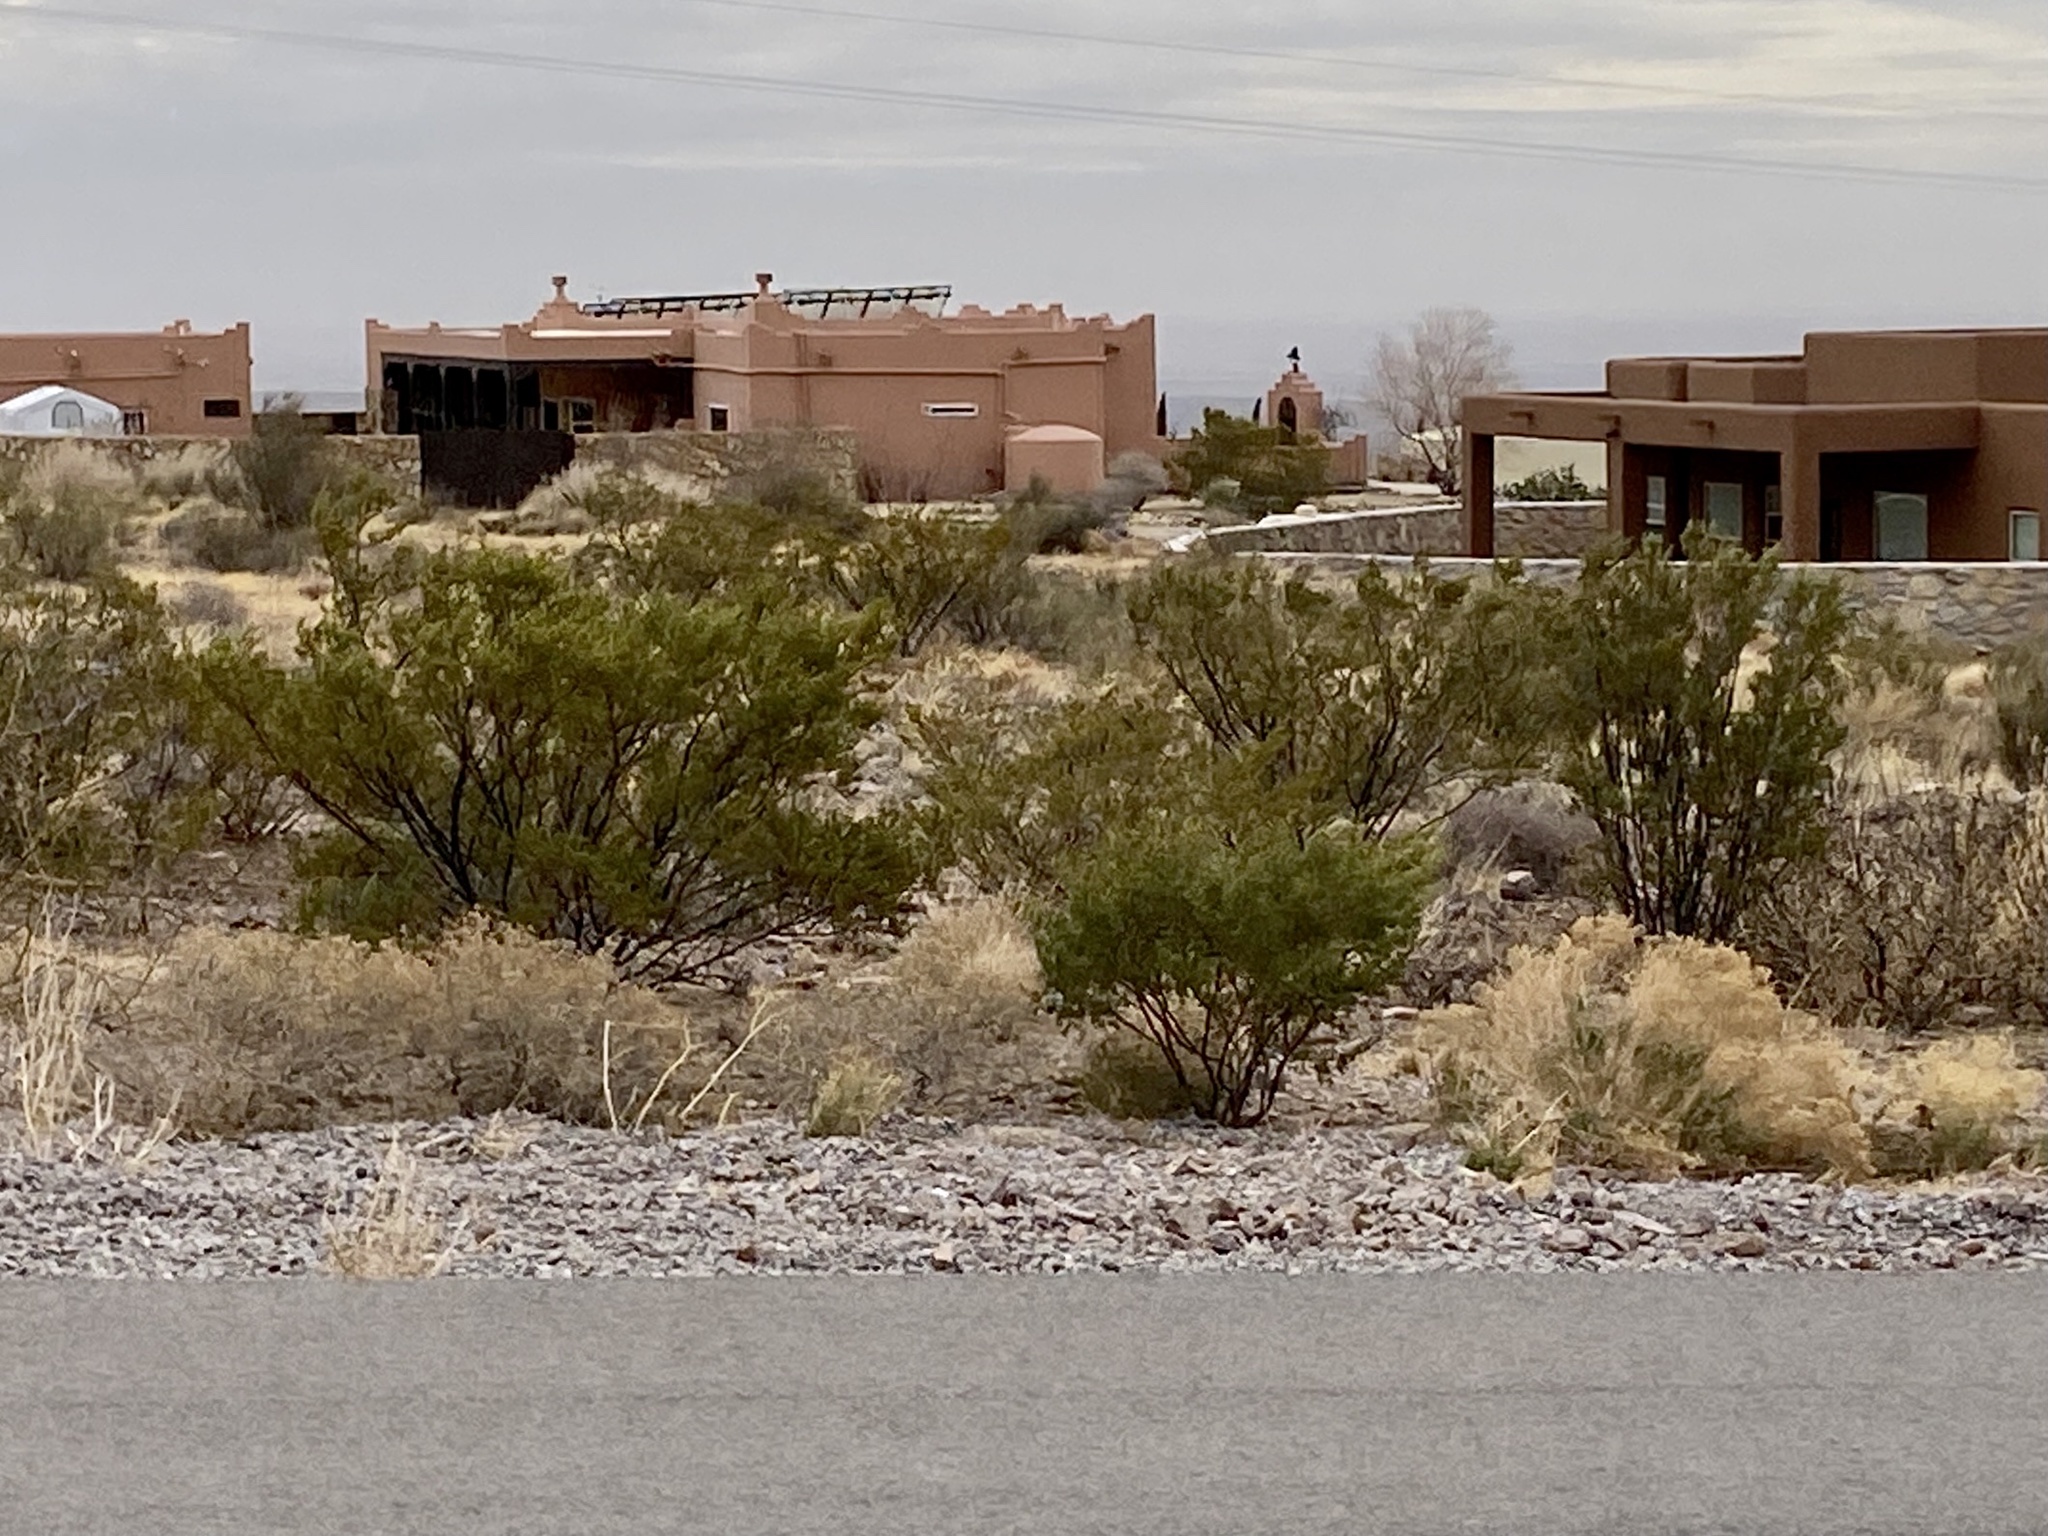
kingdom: Plantae
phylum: Tracheophyta
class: Magnoliopsida
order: Zygophyllales
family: Zygophyllaceae
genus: Larrea
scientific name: Larrea tridentata
